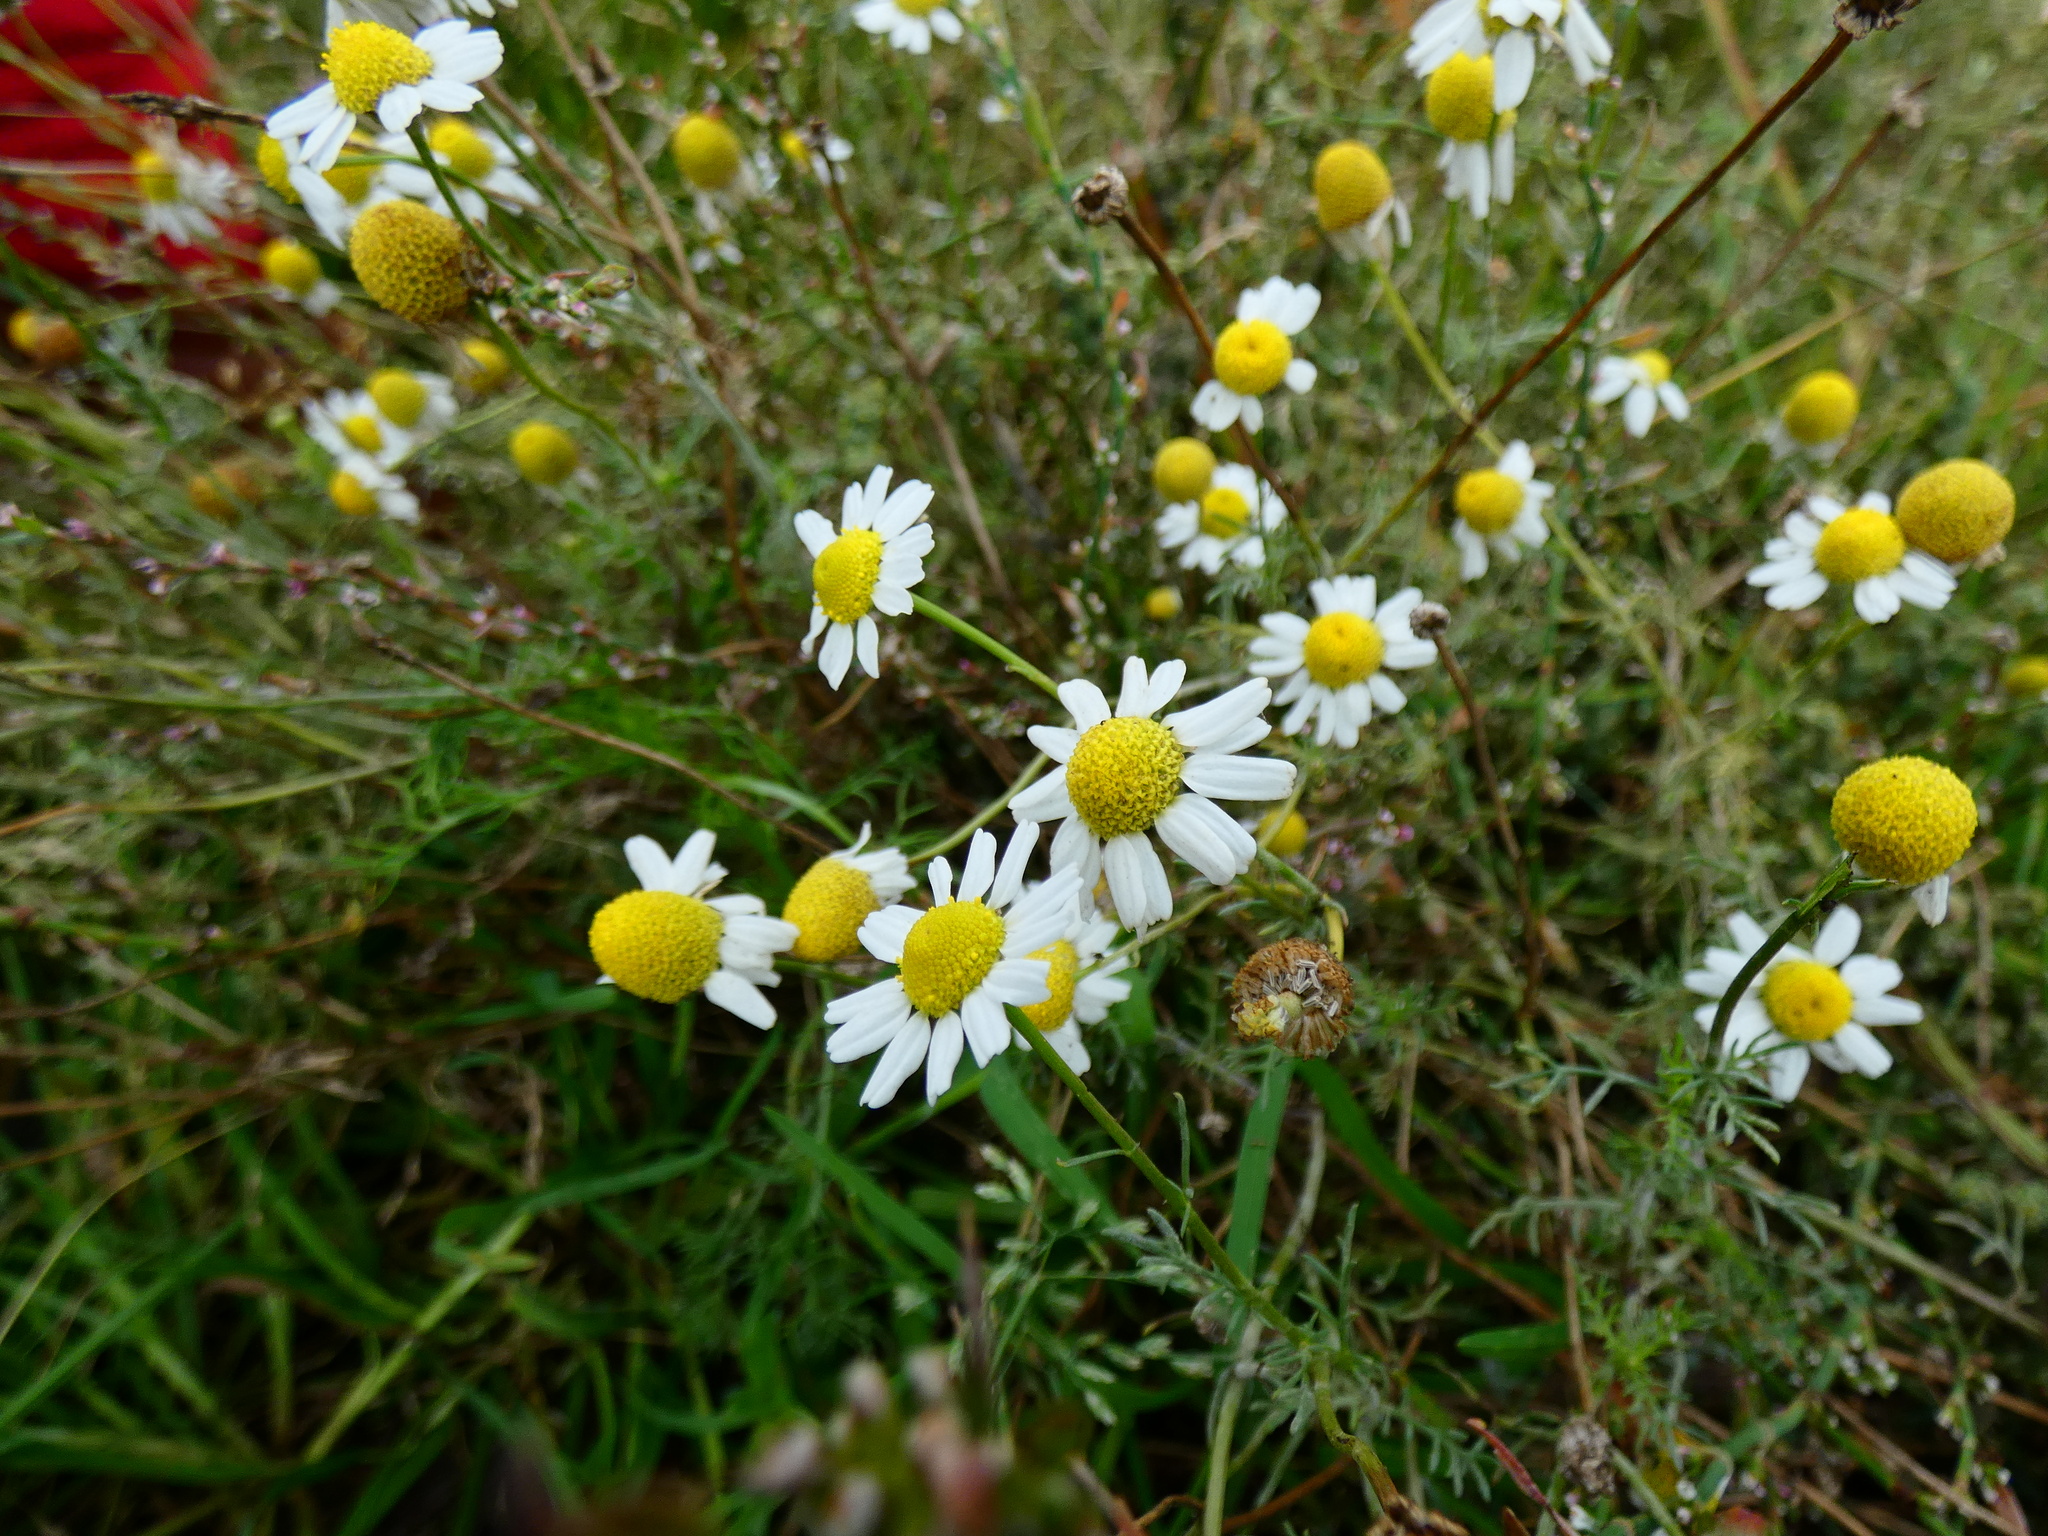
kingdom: Plantae
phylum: Tracheophyta
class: Magnoliopsida
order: Asterales
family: Asteraceae
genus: Matricaria
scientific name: Matricaria chamomilla
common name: Scented mayweed
